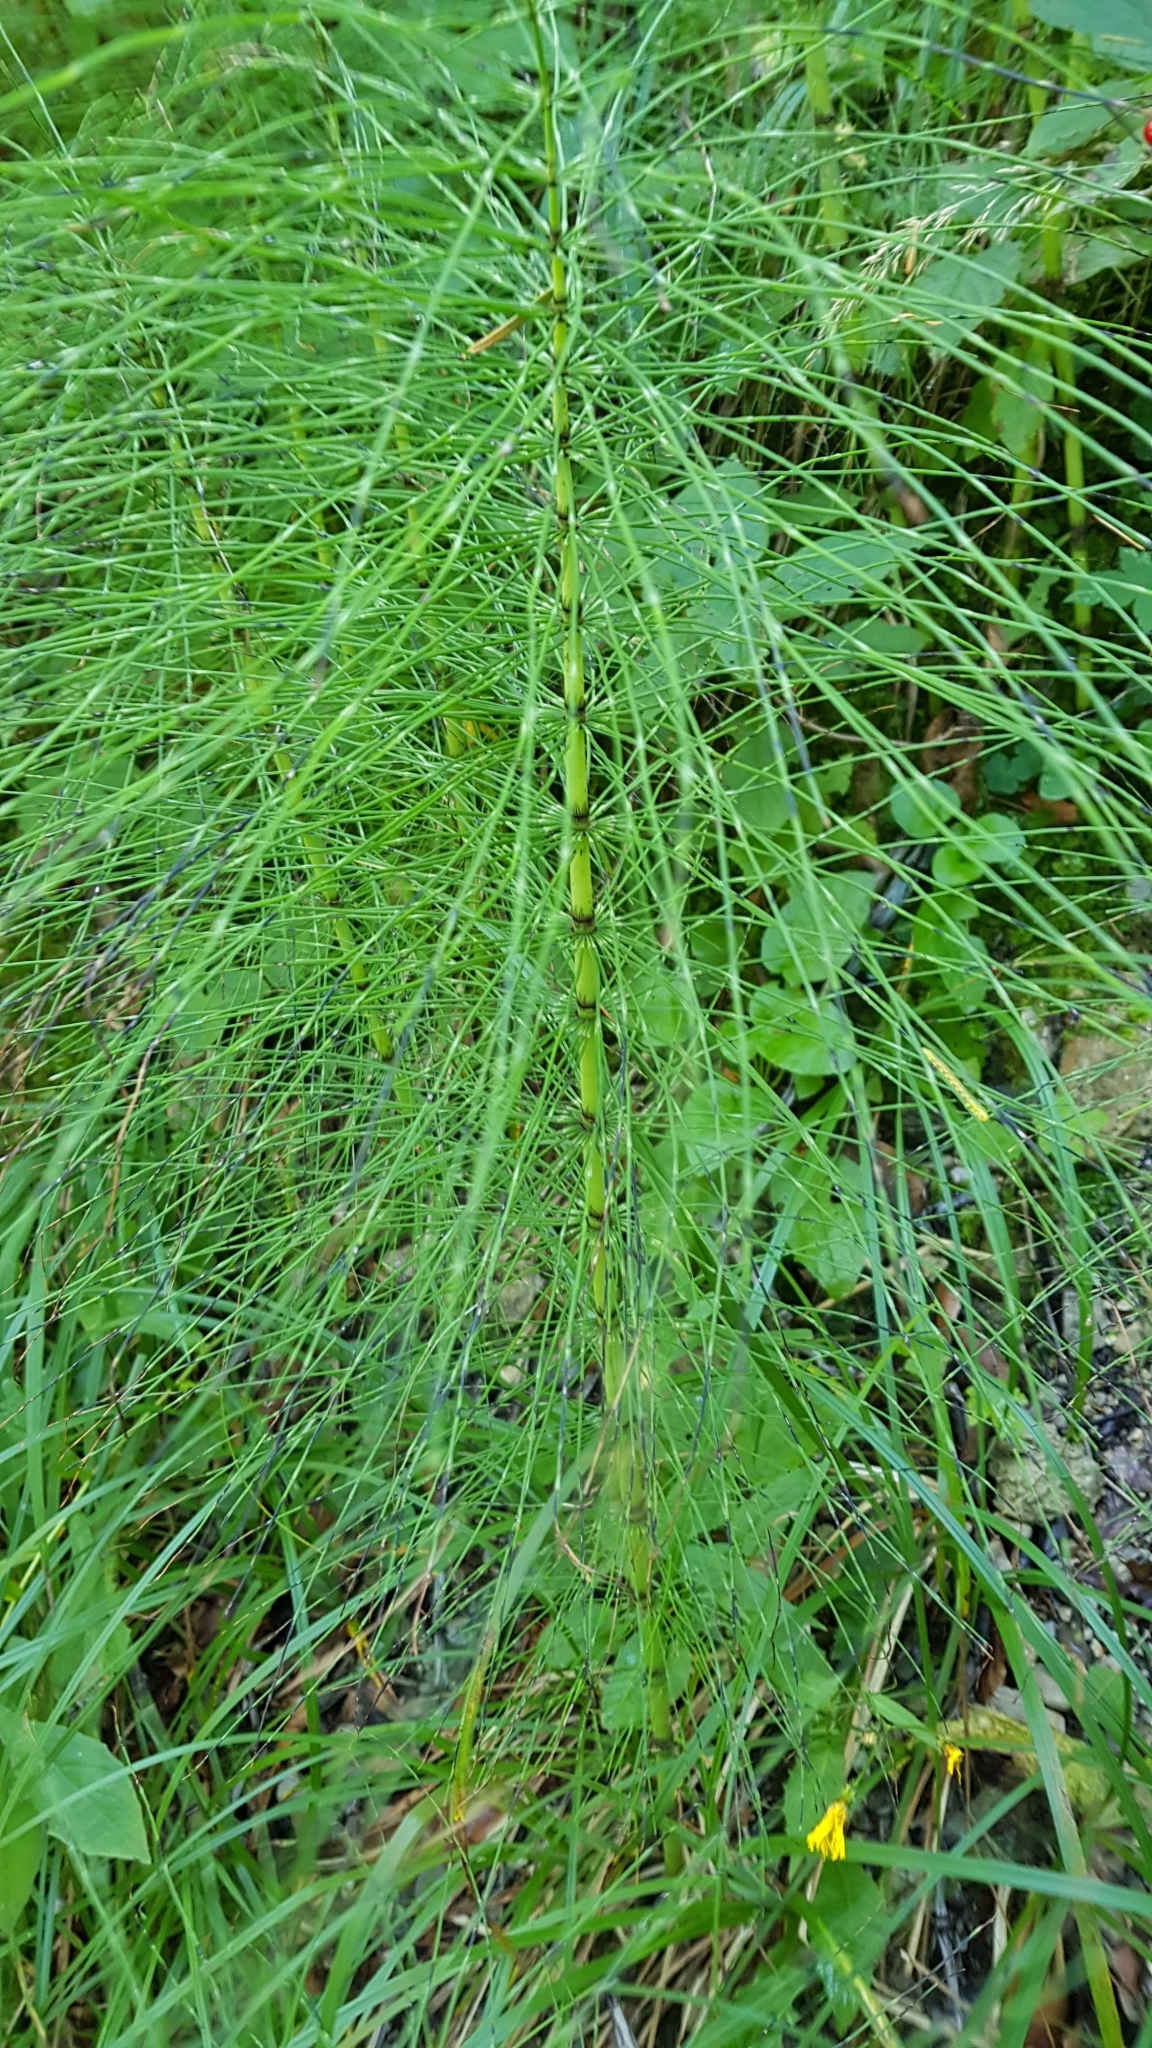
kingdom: Plantae
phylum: Tracheophyta
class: Polypodiopsida
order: Equisetales
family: Equisetaceae
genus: Equisetum
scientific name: Equisetum telmateia
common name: Great horsetail
